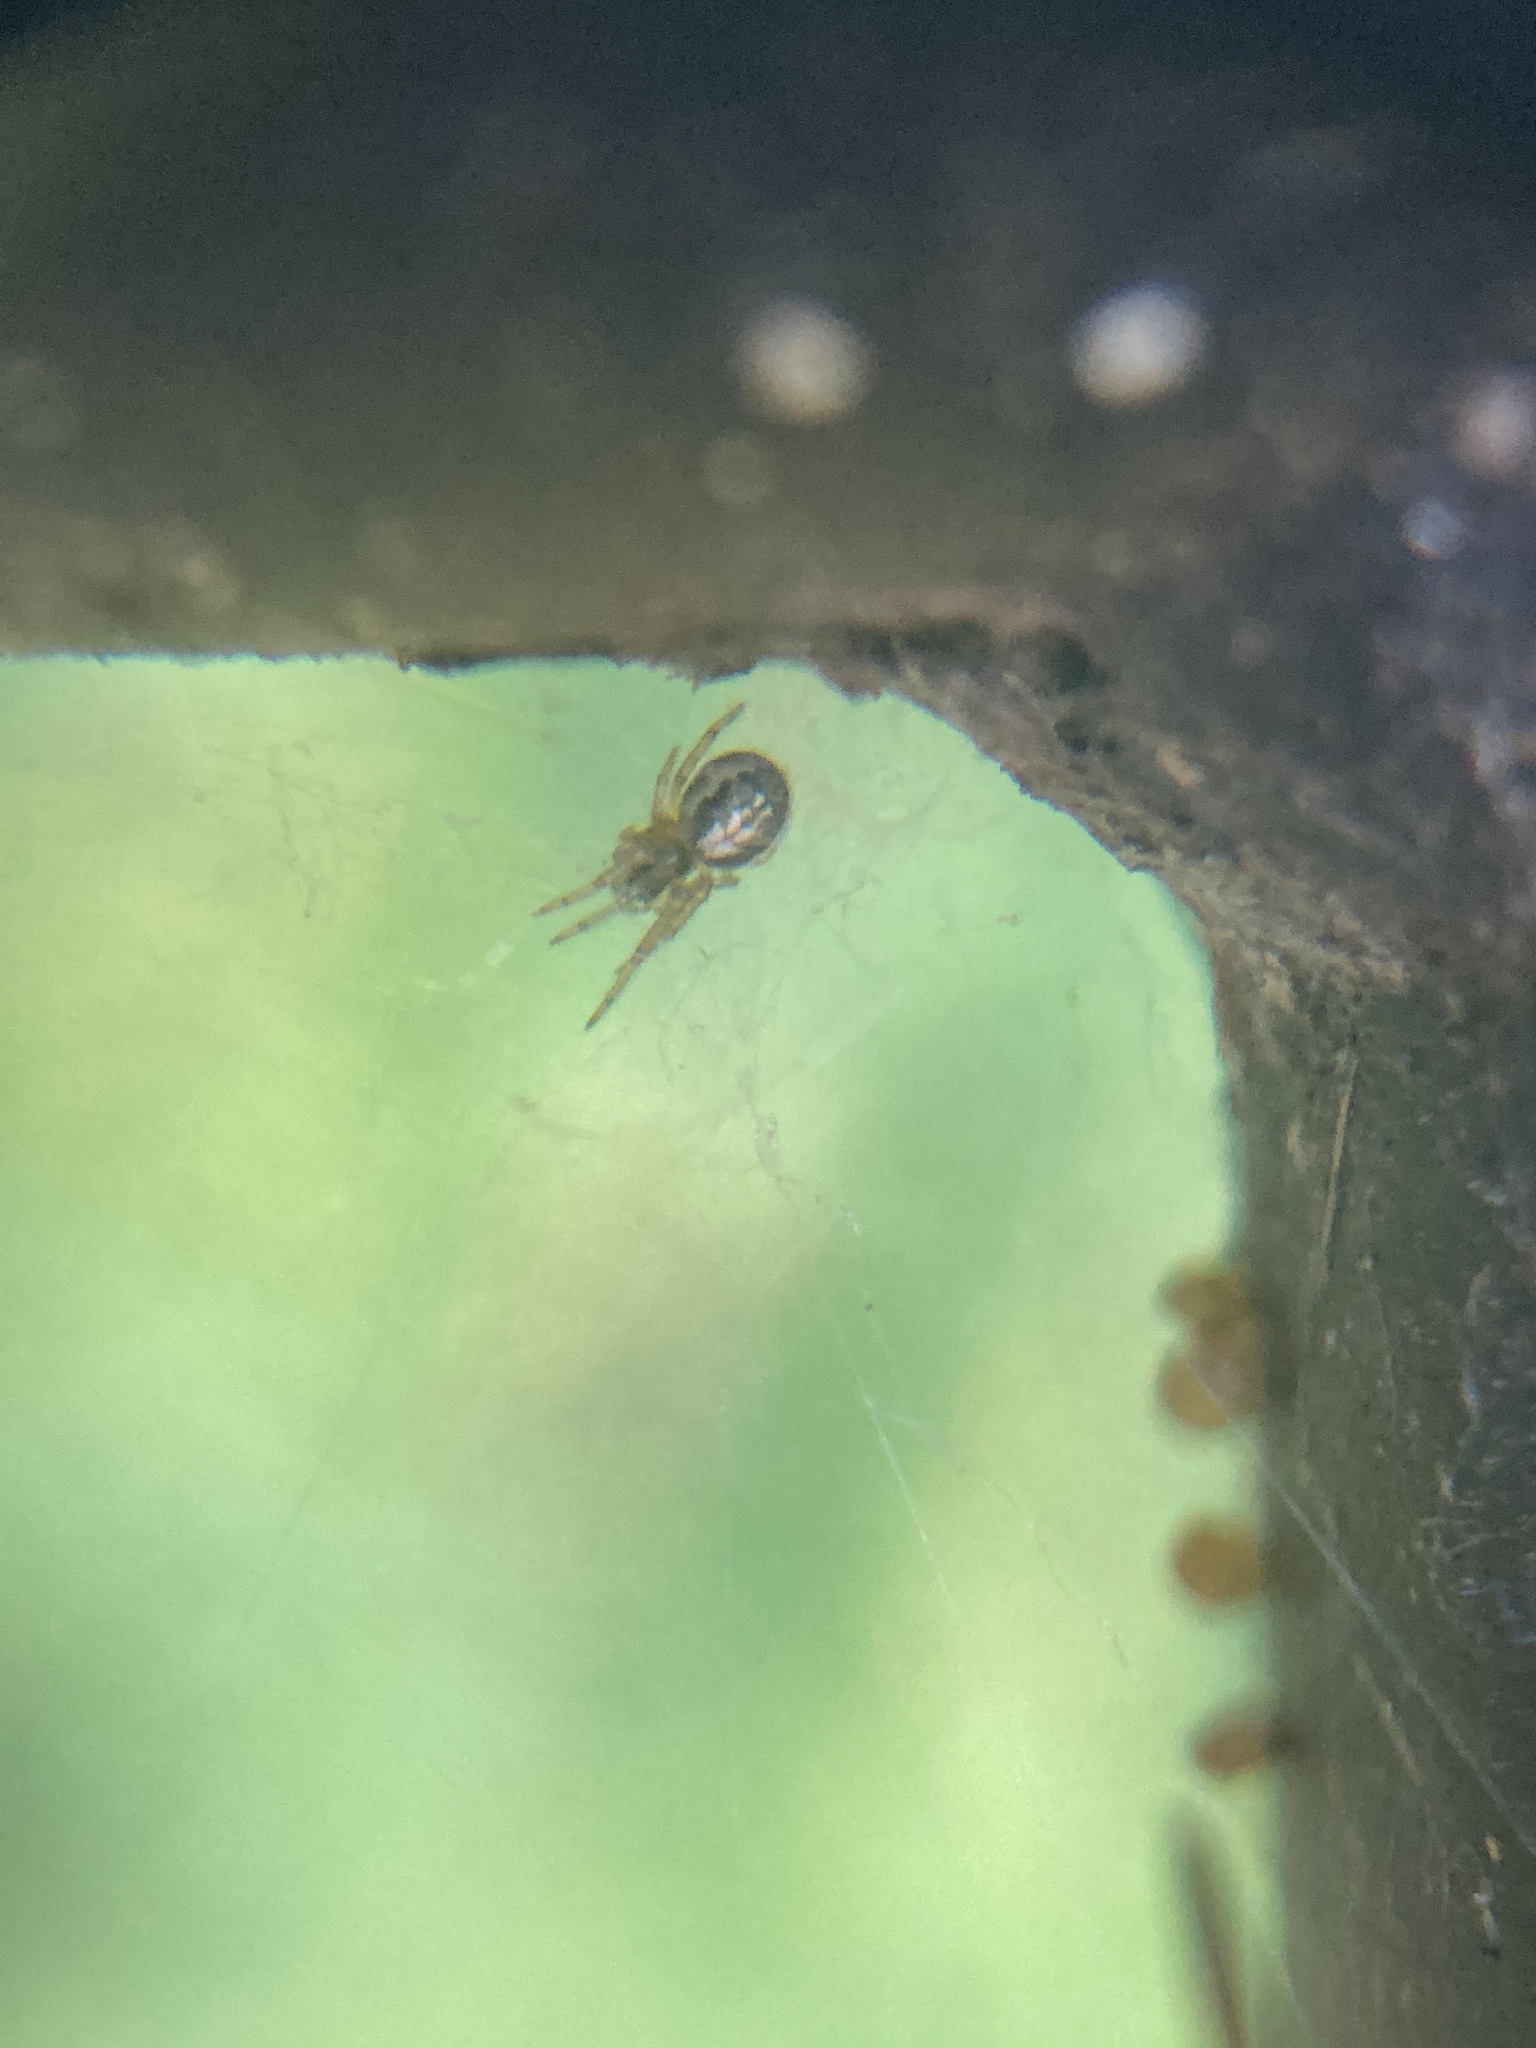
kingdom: Animalia
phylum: Arthropoda
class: Arachnida
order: Araneae
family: Araneidae
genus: Zygiella
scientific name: Zygiella x-notata
